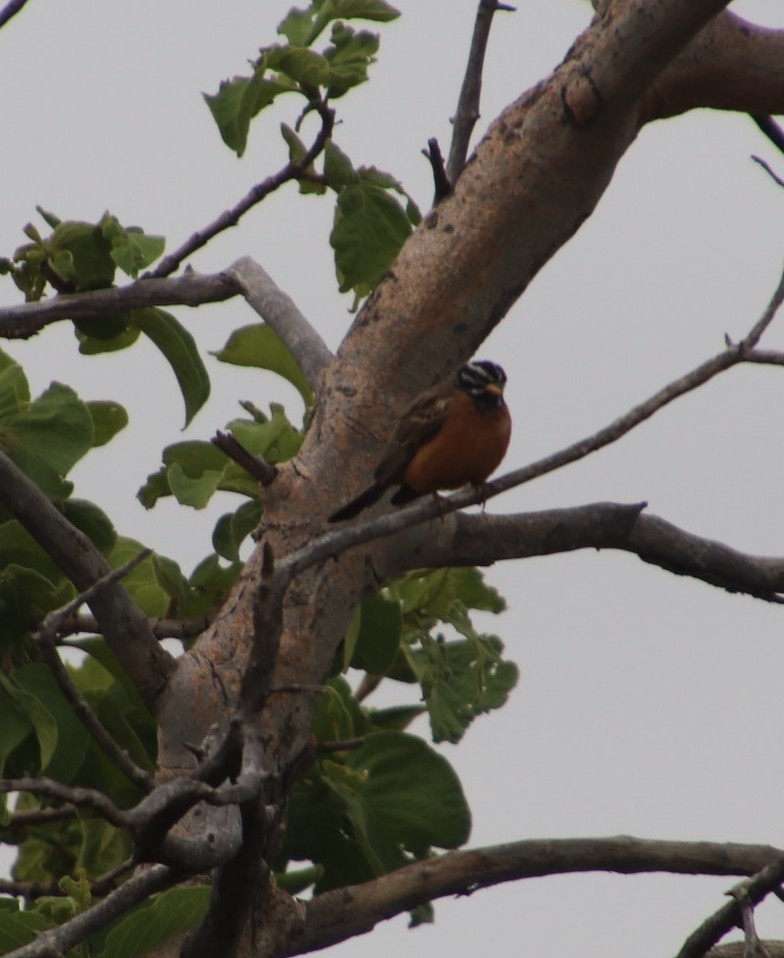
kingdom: Animalia
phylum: Chordata
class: Aves
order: Passeriformes
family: Emberizidae
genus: Emberiza
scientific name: Emberiza tahapisi
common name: Cinnamon-breasted bunting
